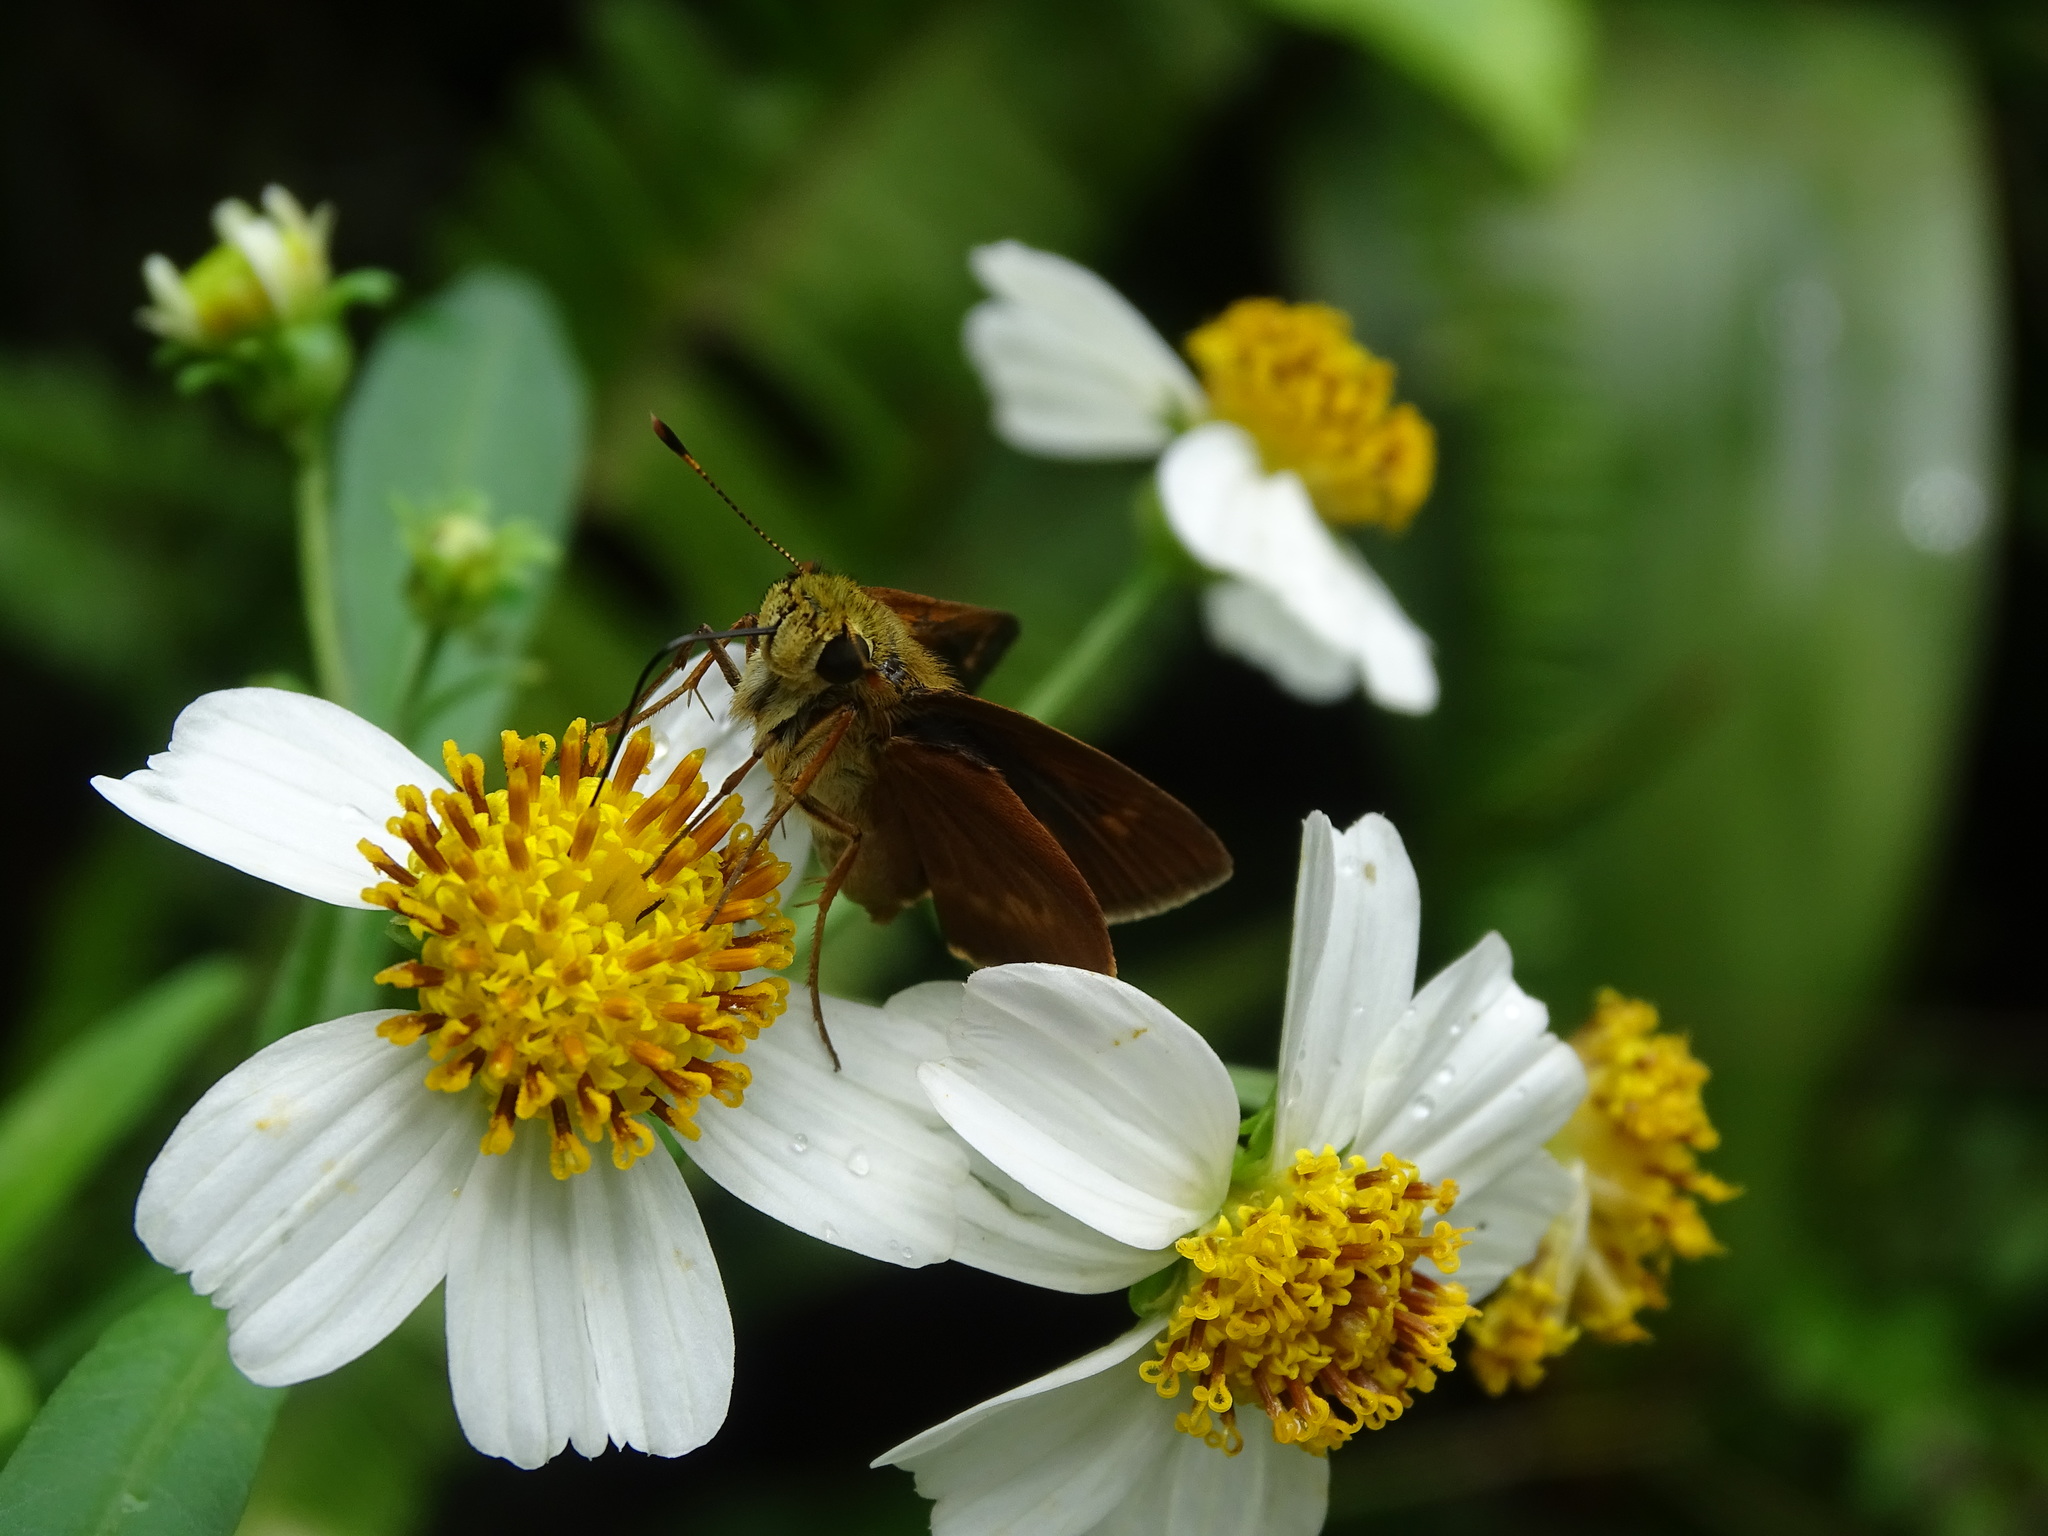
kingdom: Animalia
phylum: Arthropoda
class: Insecta
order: Lepidoptera
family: Hesperiidae
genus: Polites
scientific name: Polites otho
